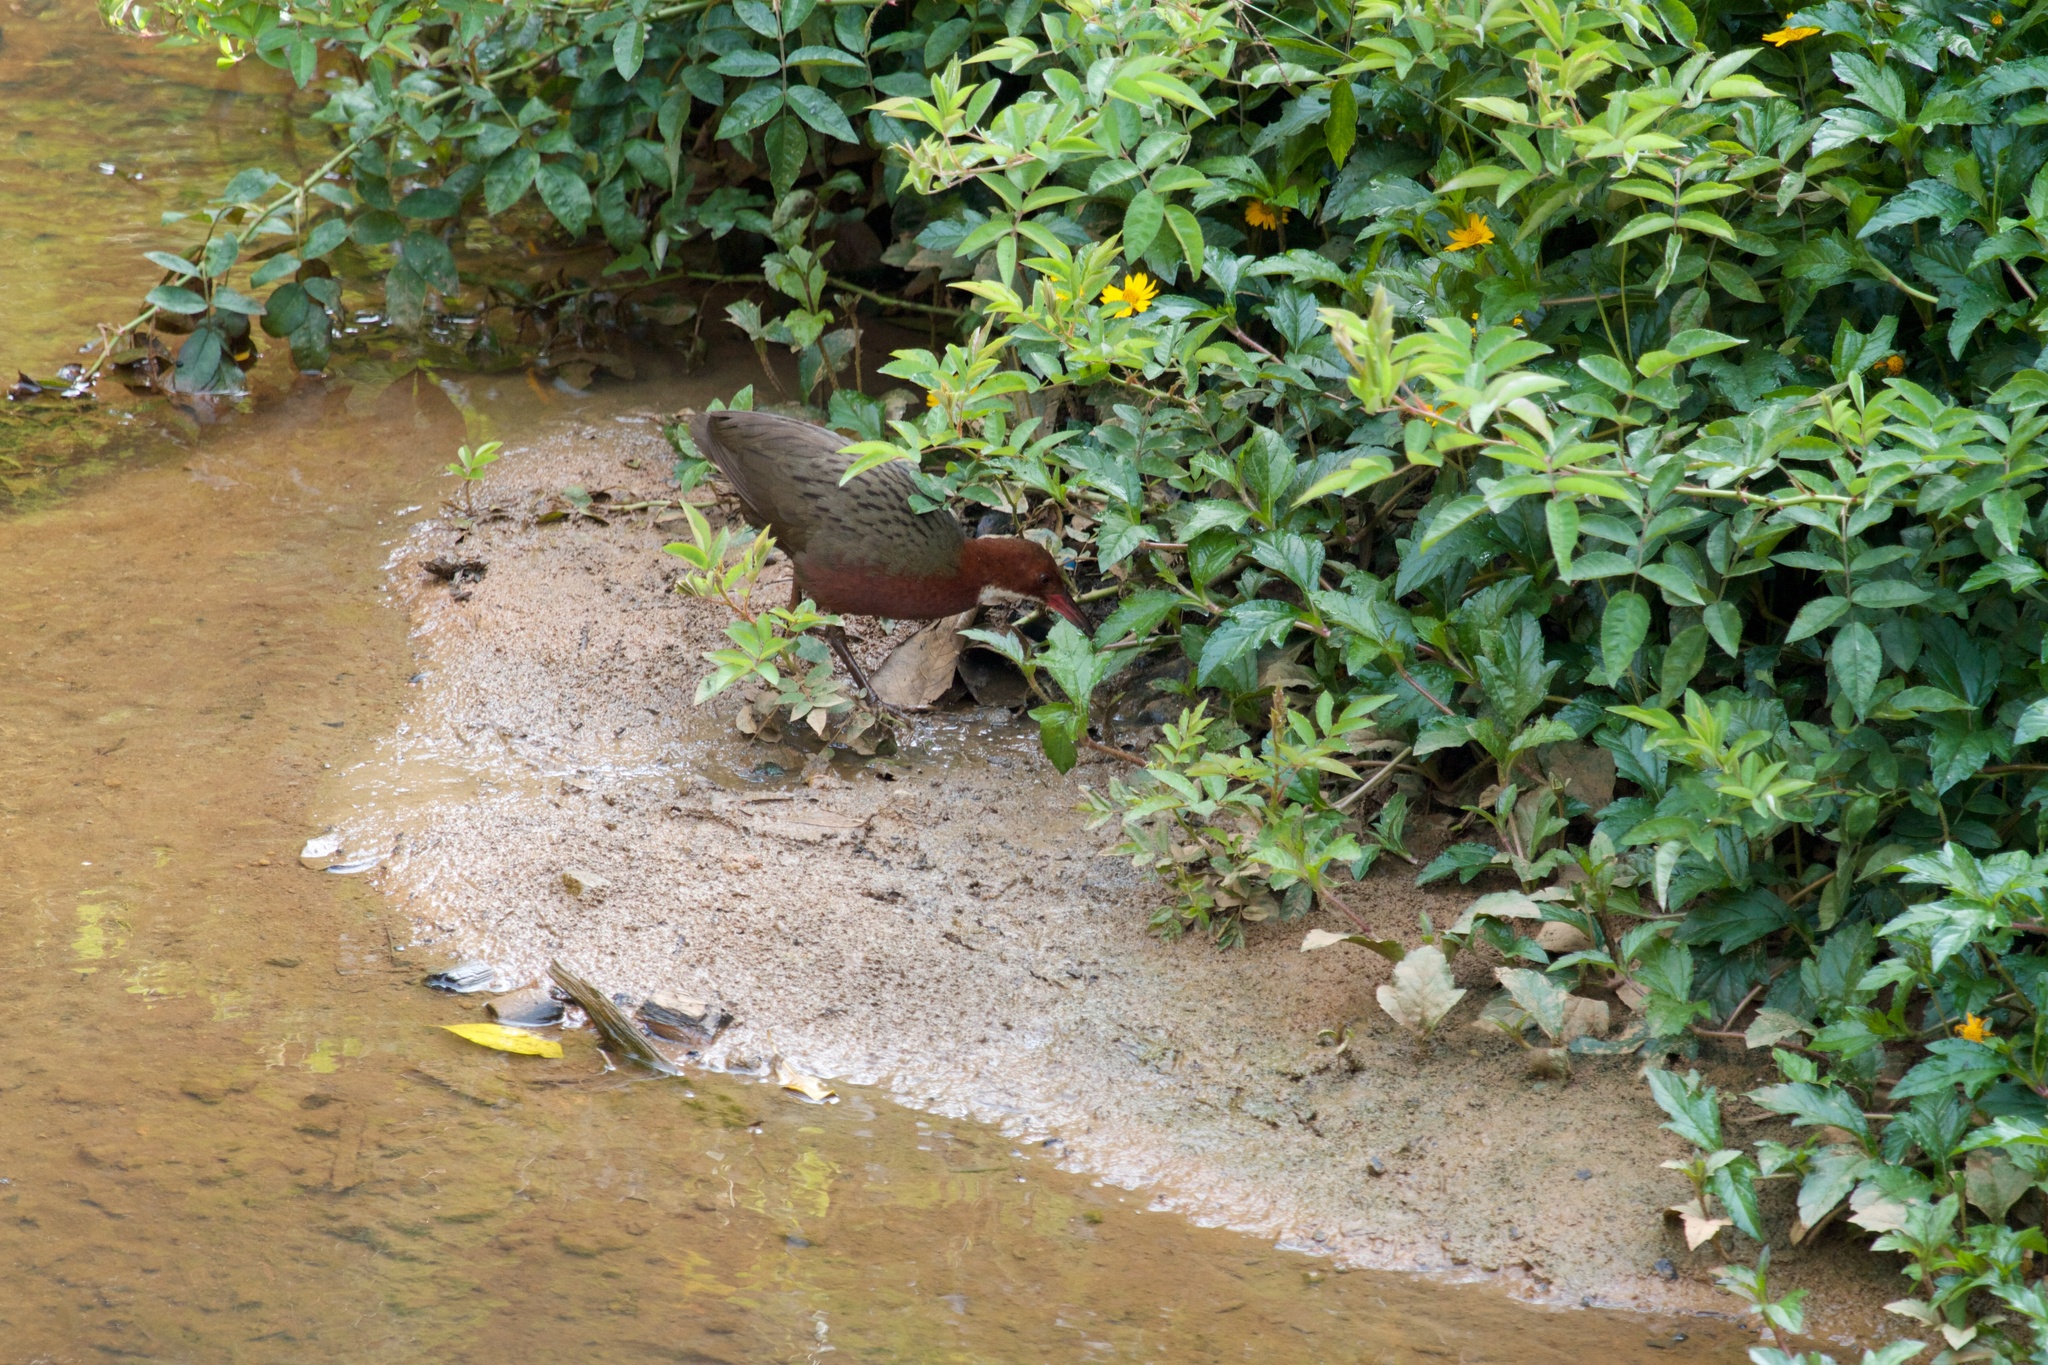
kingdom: Animalia
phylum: Chordata
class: Aves
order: Gruiformes
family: Rallidae
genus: Dryolimnas
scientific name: Dryolimnas cuvieri
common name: White-throated rail
